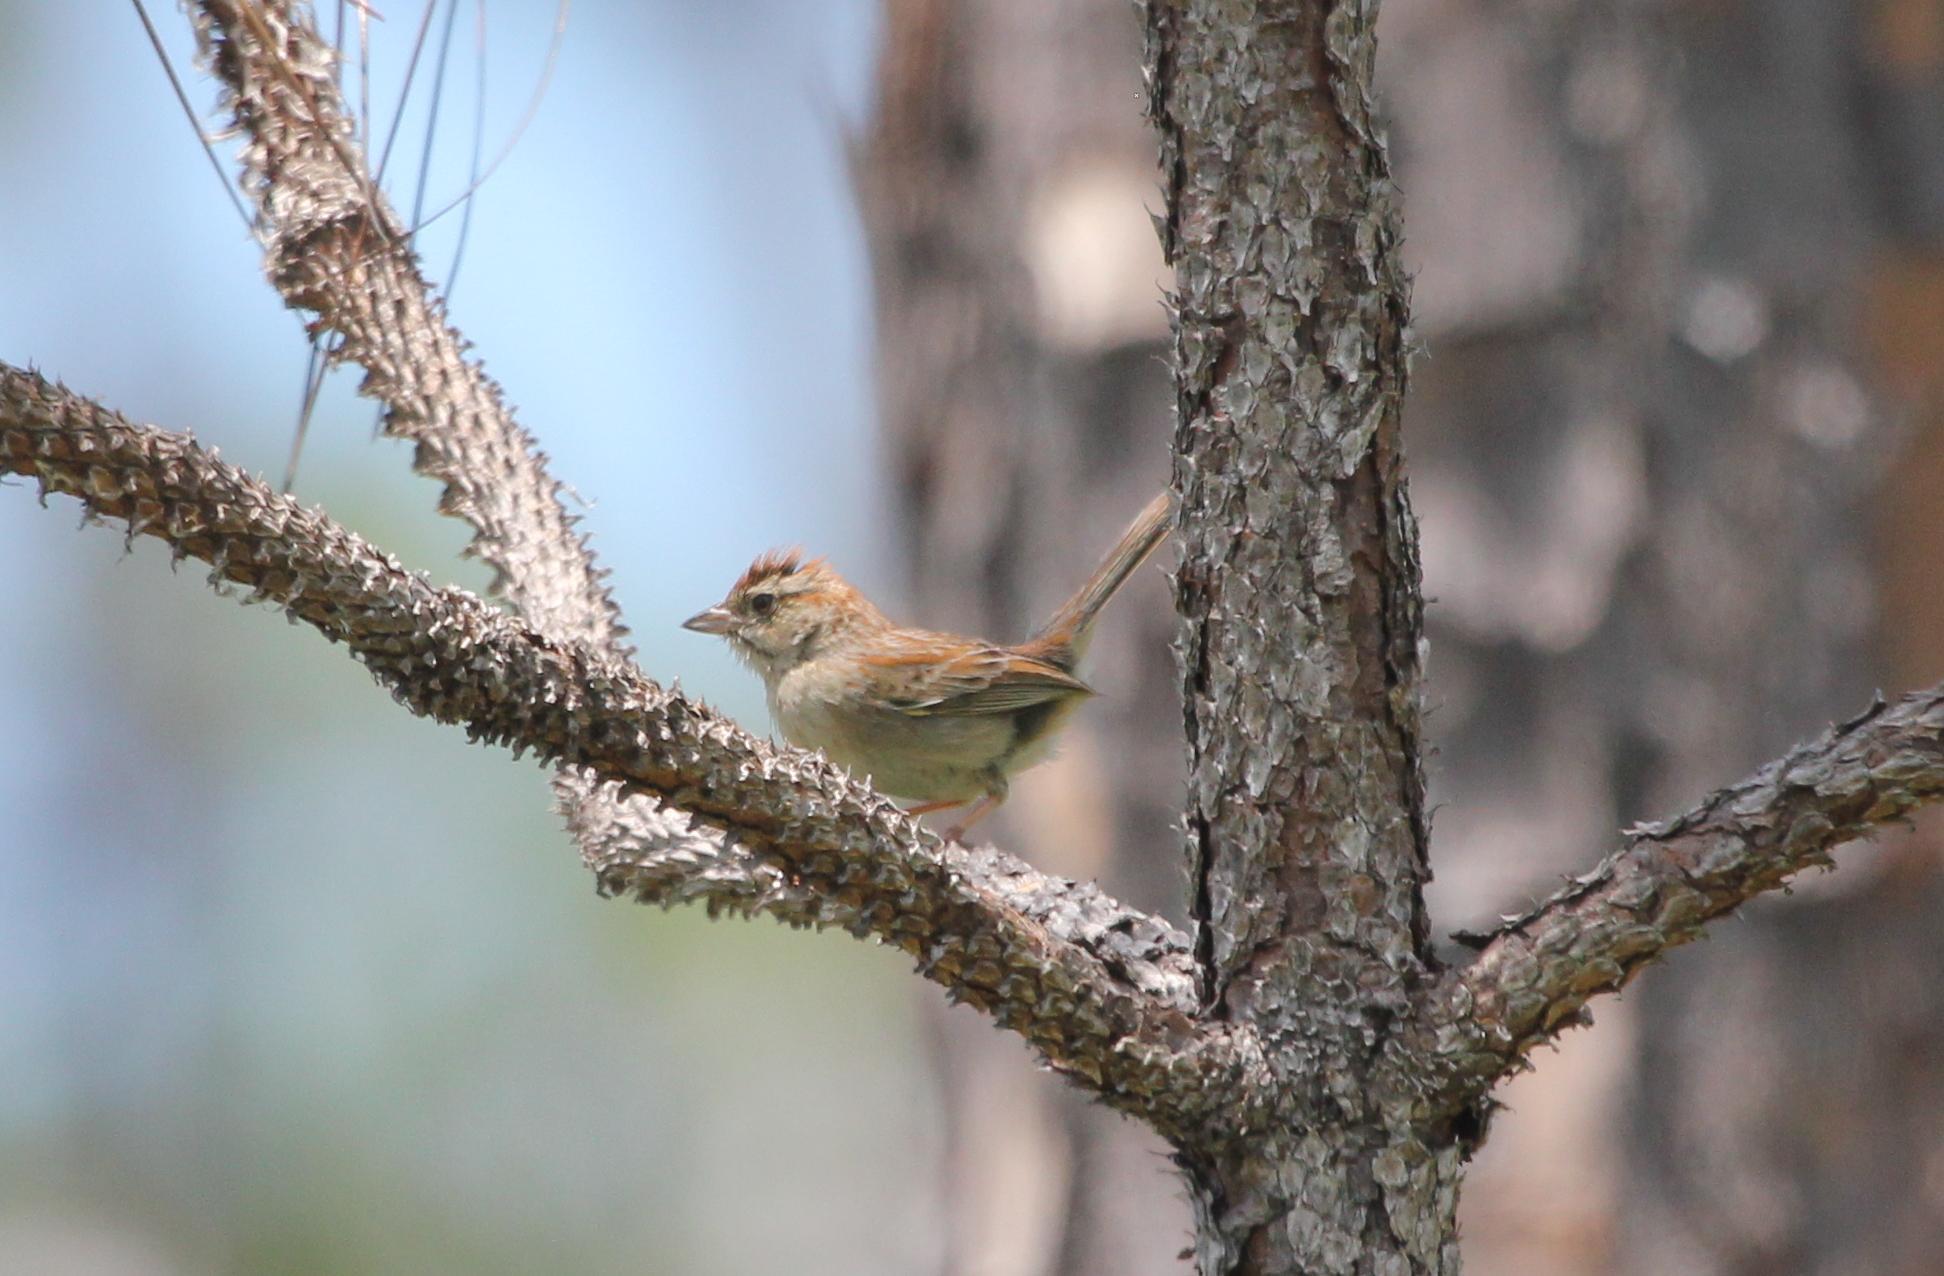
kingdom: Animalia
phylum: Chordata
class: Aves
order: Passeriformes
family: Passerellidae
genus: Peucaea
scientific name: Peucaea aestivalis
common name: Bachman's sparrow
